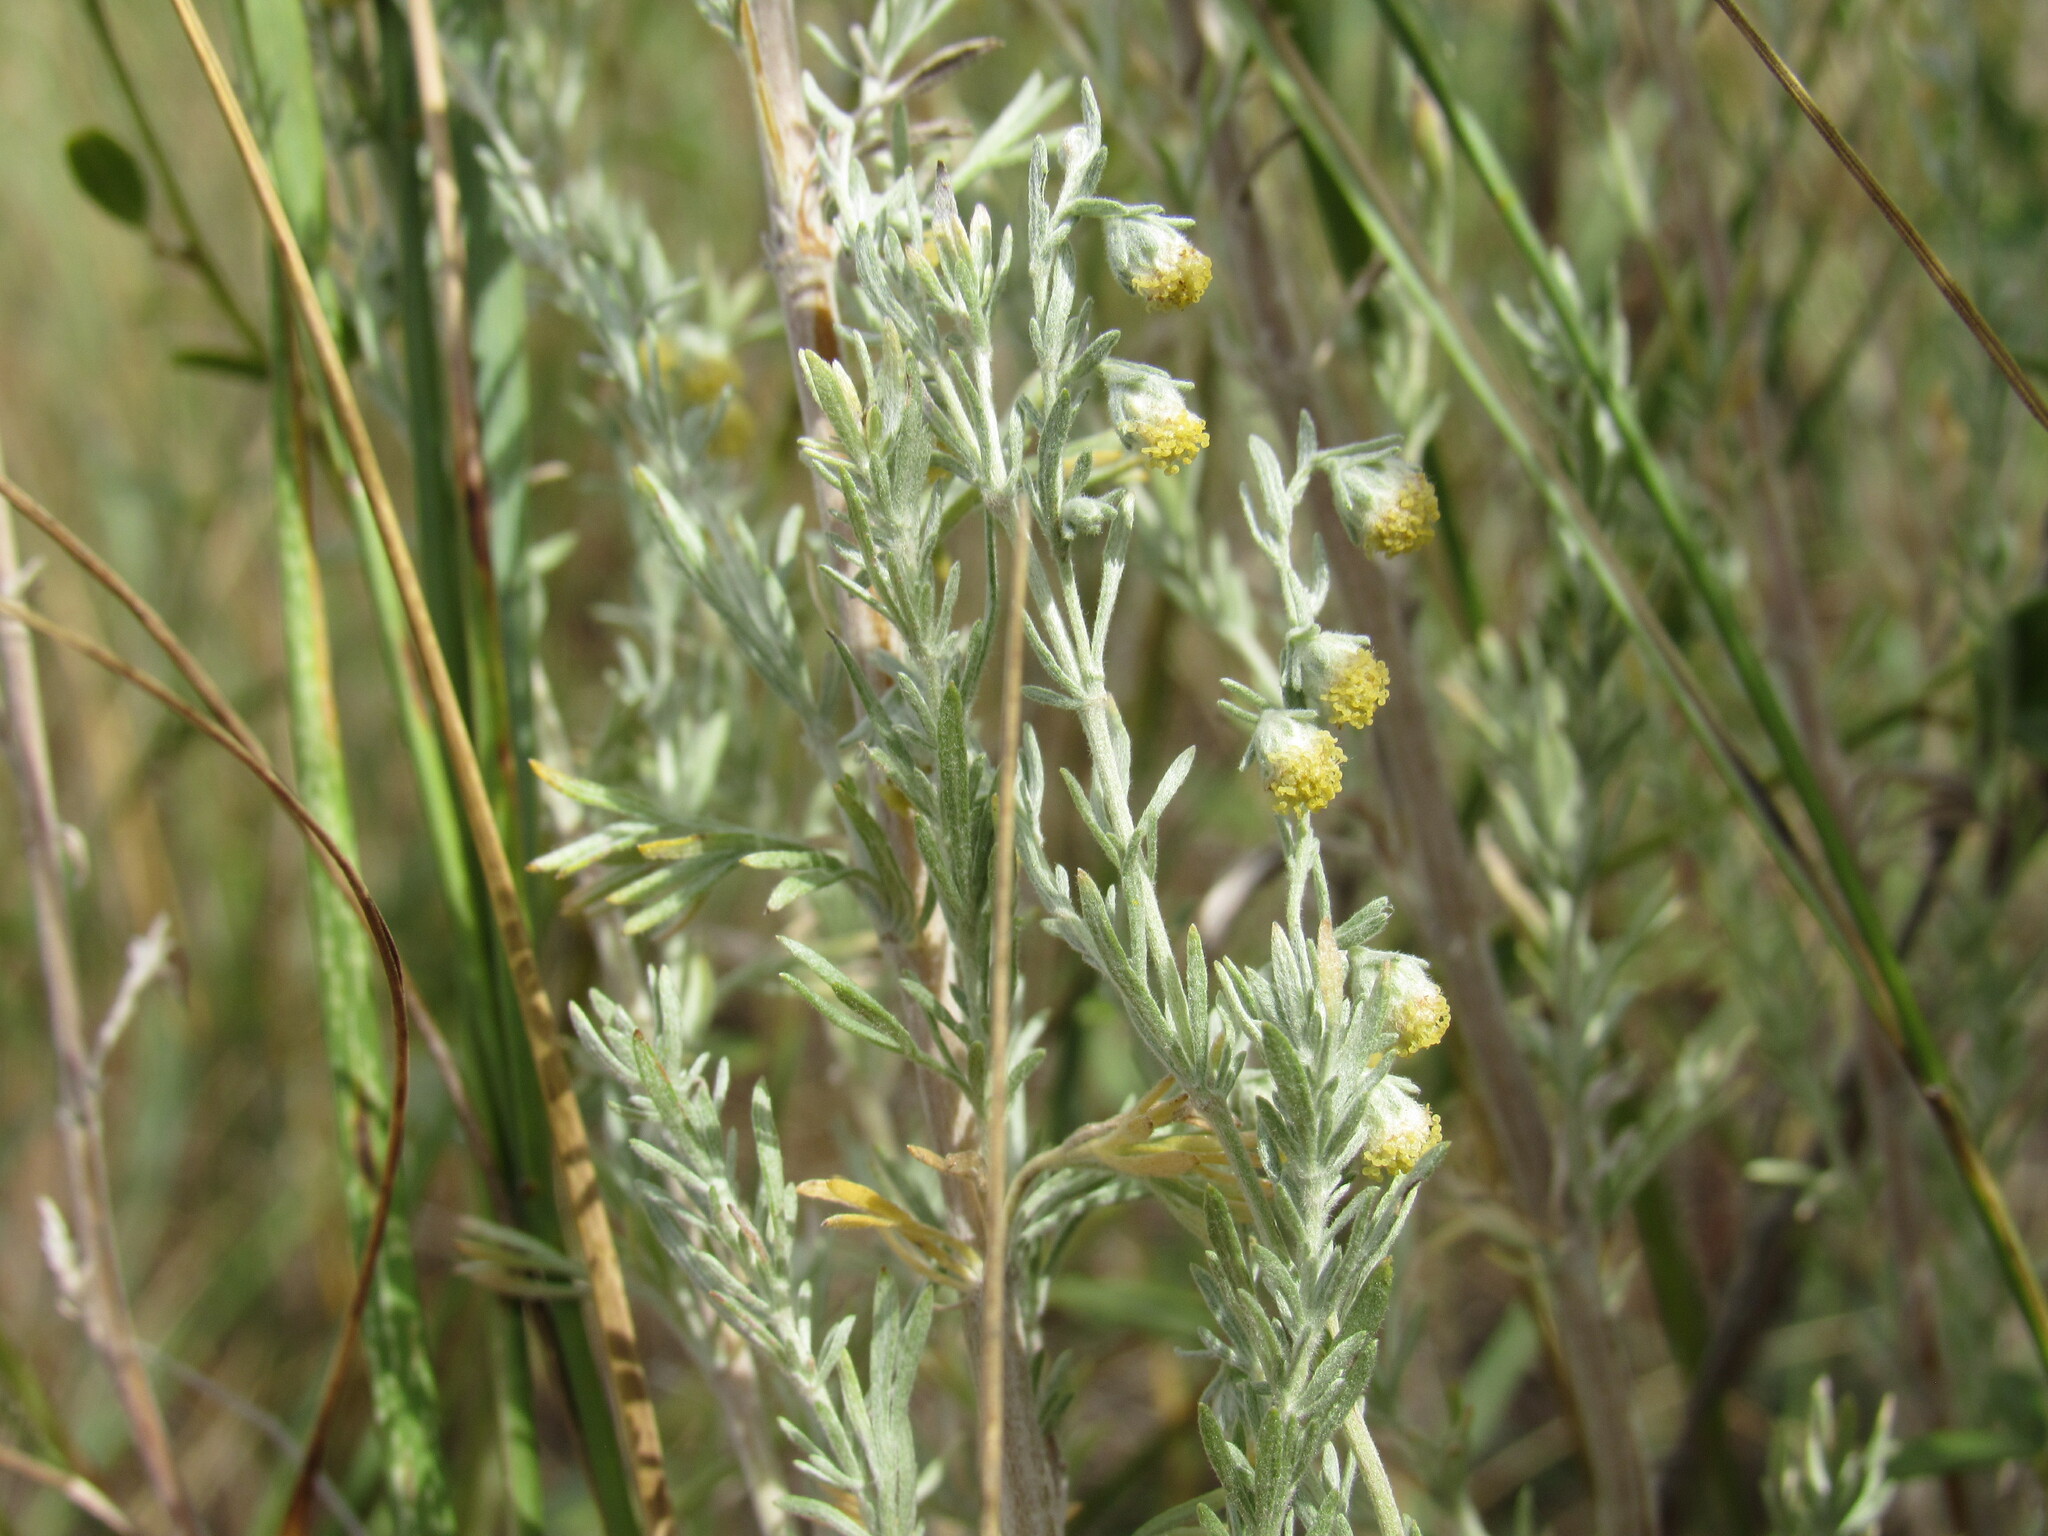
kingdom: Plantae
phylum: Tracheophyta
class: Magnoliopsida
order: Asterales
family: Asteraceae
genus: Artemisia
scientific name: Artemisia frigida
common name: Prairie sagewort
